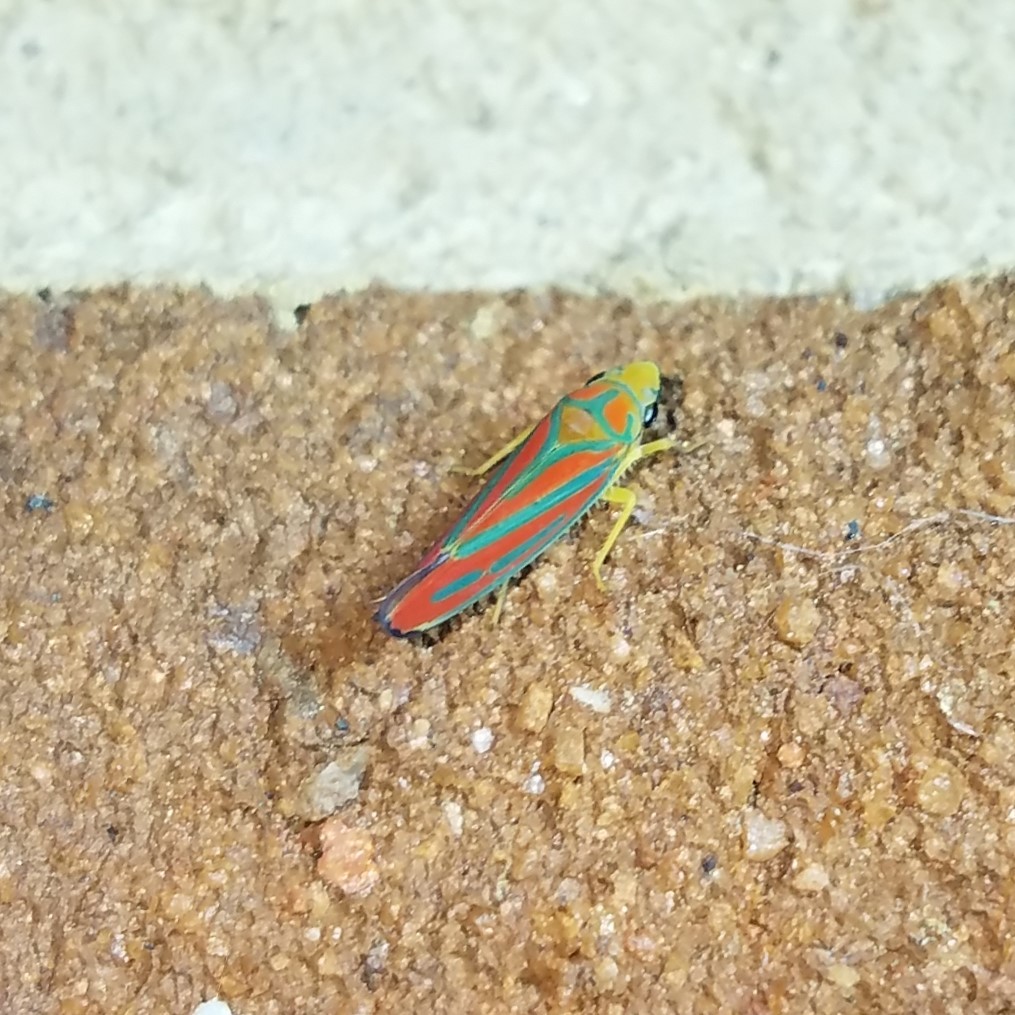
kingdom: Animalia
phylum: Arthropoda
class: Insecta
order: Hemiptera
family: Cicadellidae
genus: Graphocephala
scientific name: Graphocephala coccinea
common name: Candy-striped leafhopper
